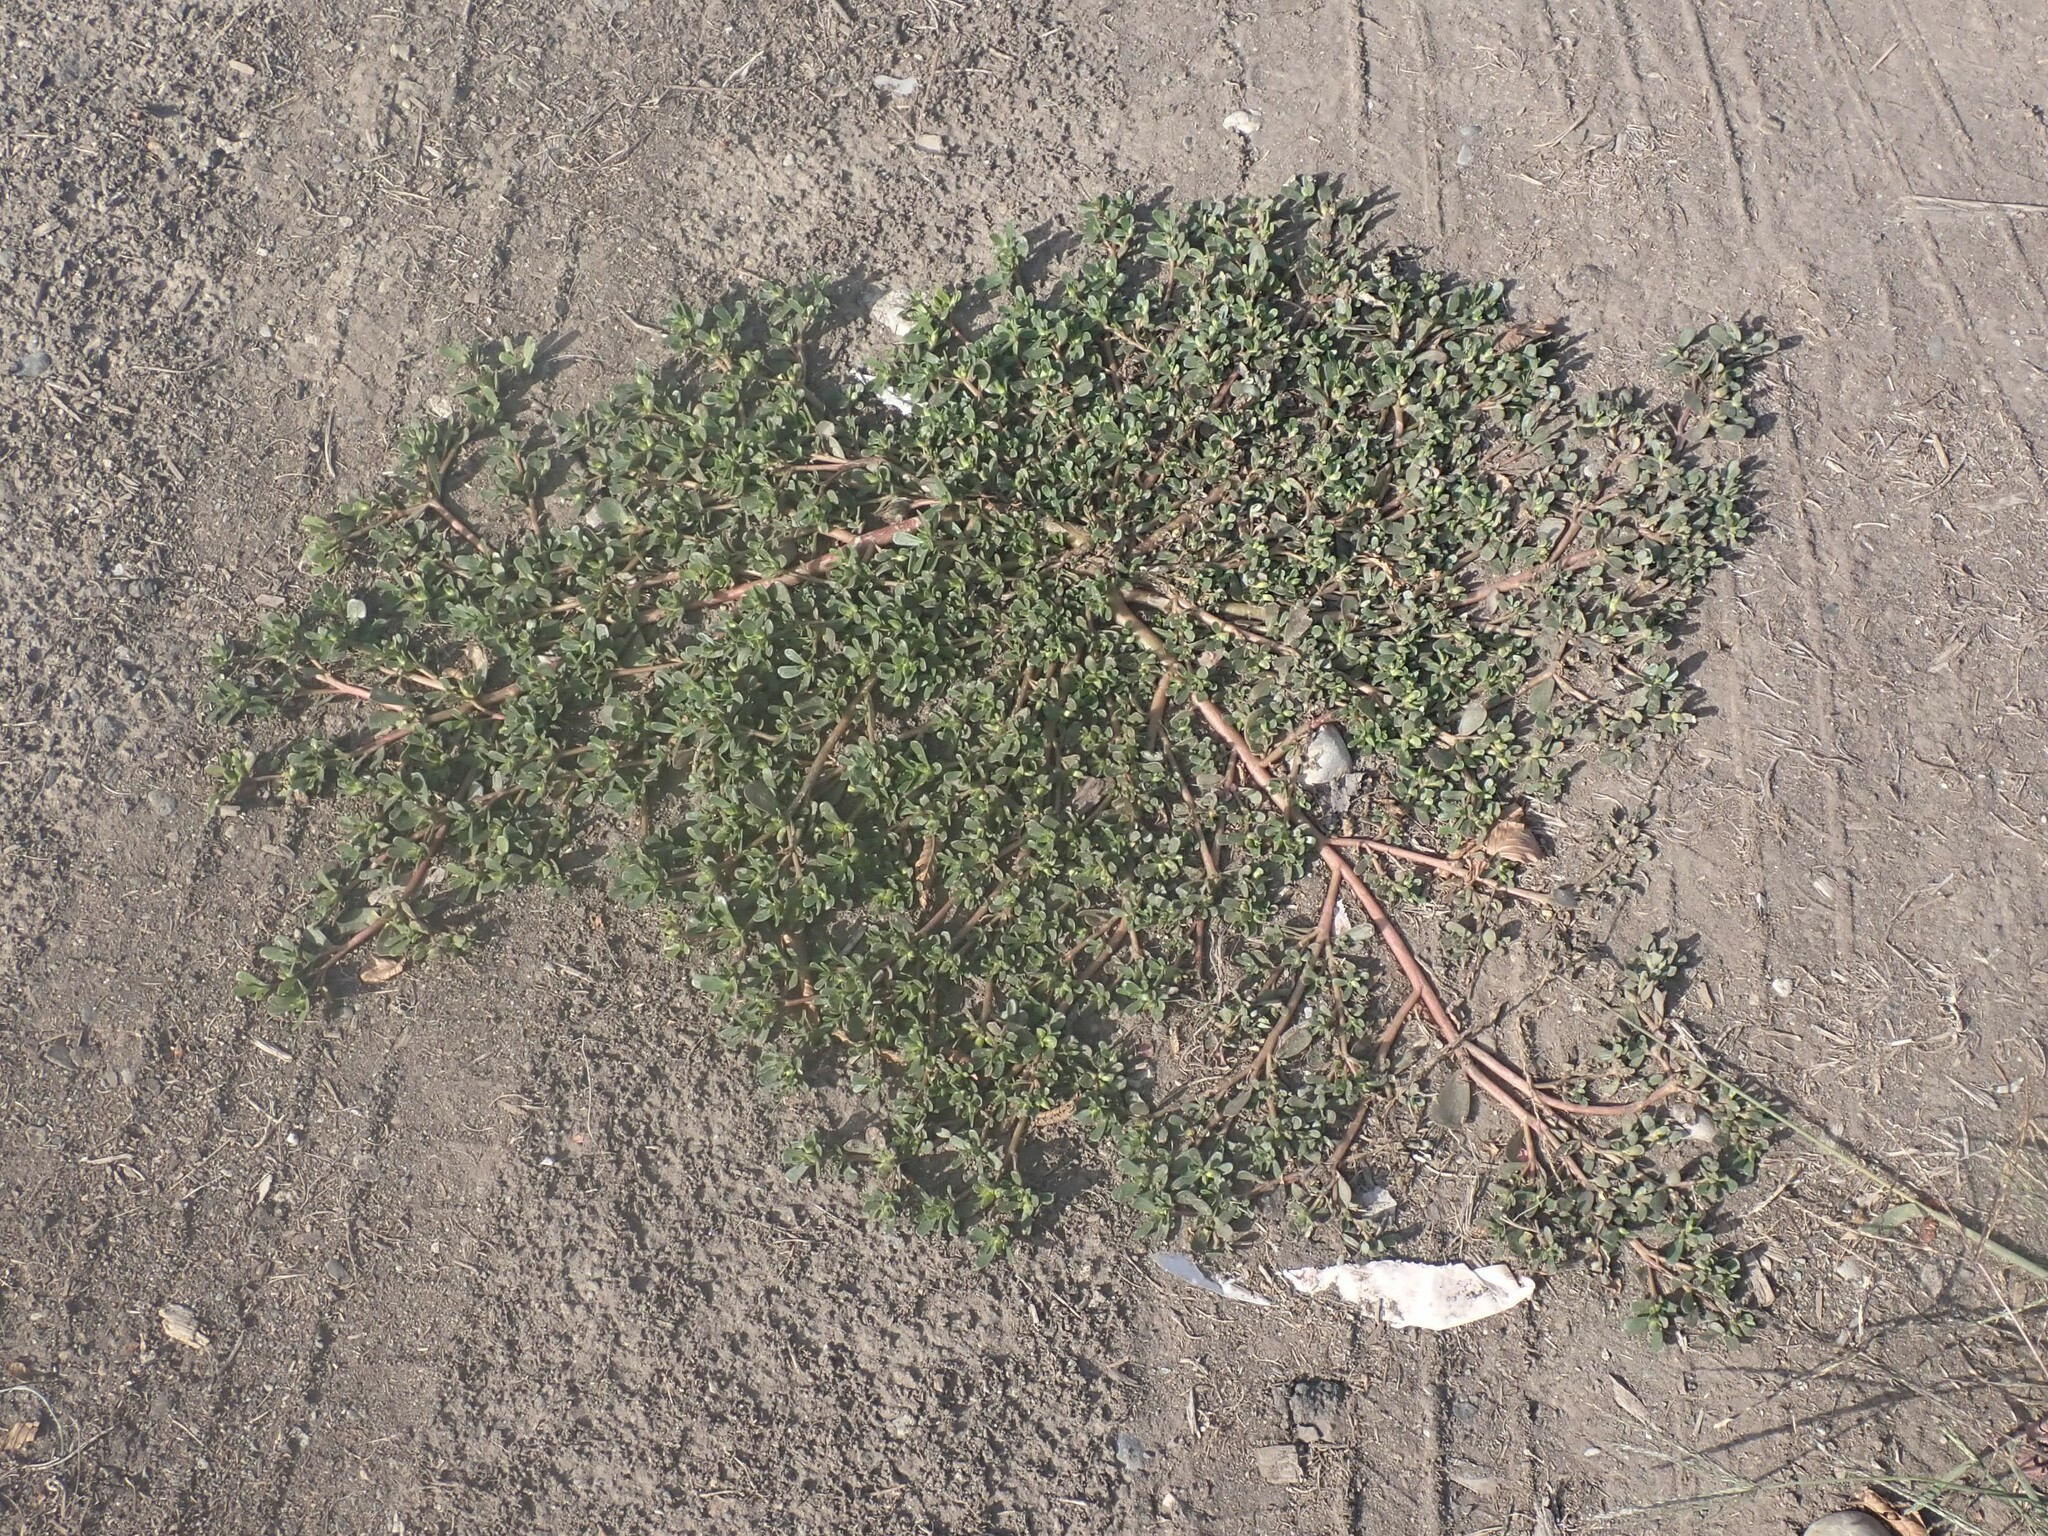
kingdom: Plantae
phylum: Tracheophyta
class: Magnoliopsida
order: Caryophyllales
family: Portulacaceae
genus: Portulaca
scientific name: Portulaca oleracea
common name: Common purslane
